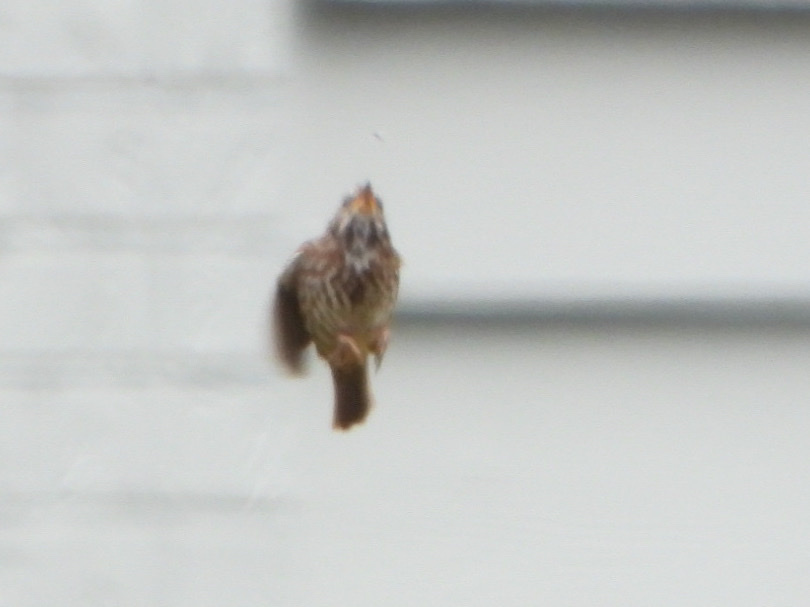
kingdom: Animalia
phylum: Chordata
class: Aves
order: Passeriformes
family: Passerellidae
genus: Melospiza
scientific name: Melospiza melodia
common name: Song sparrow
